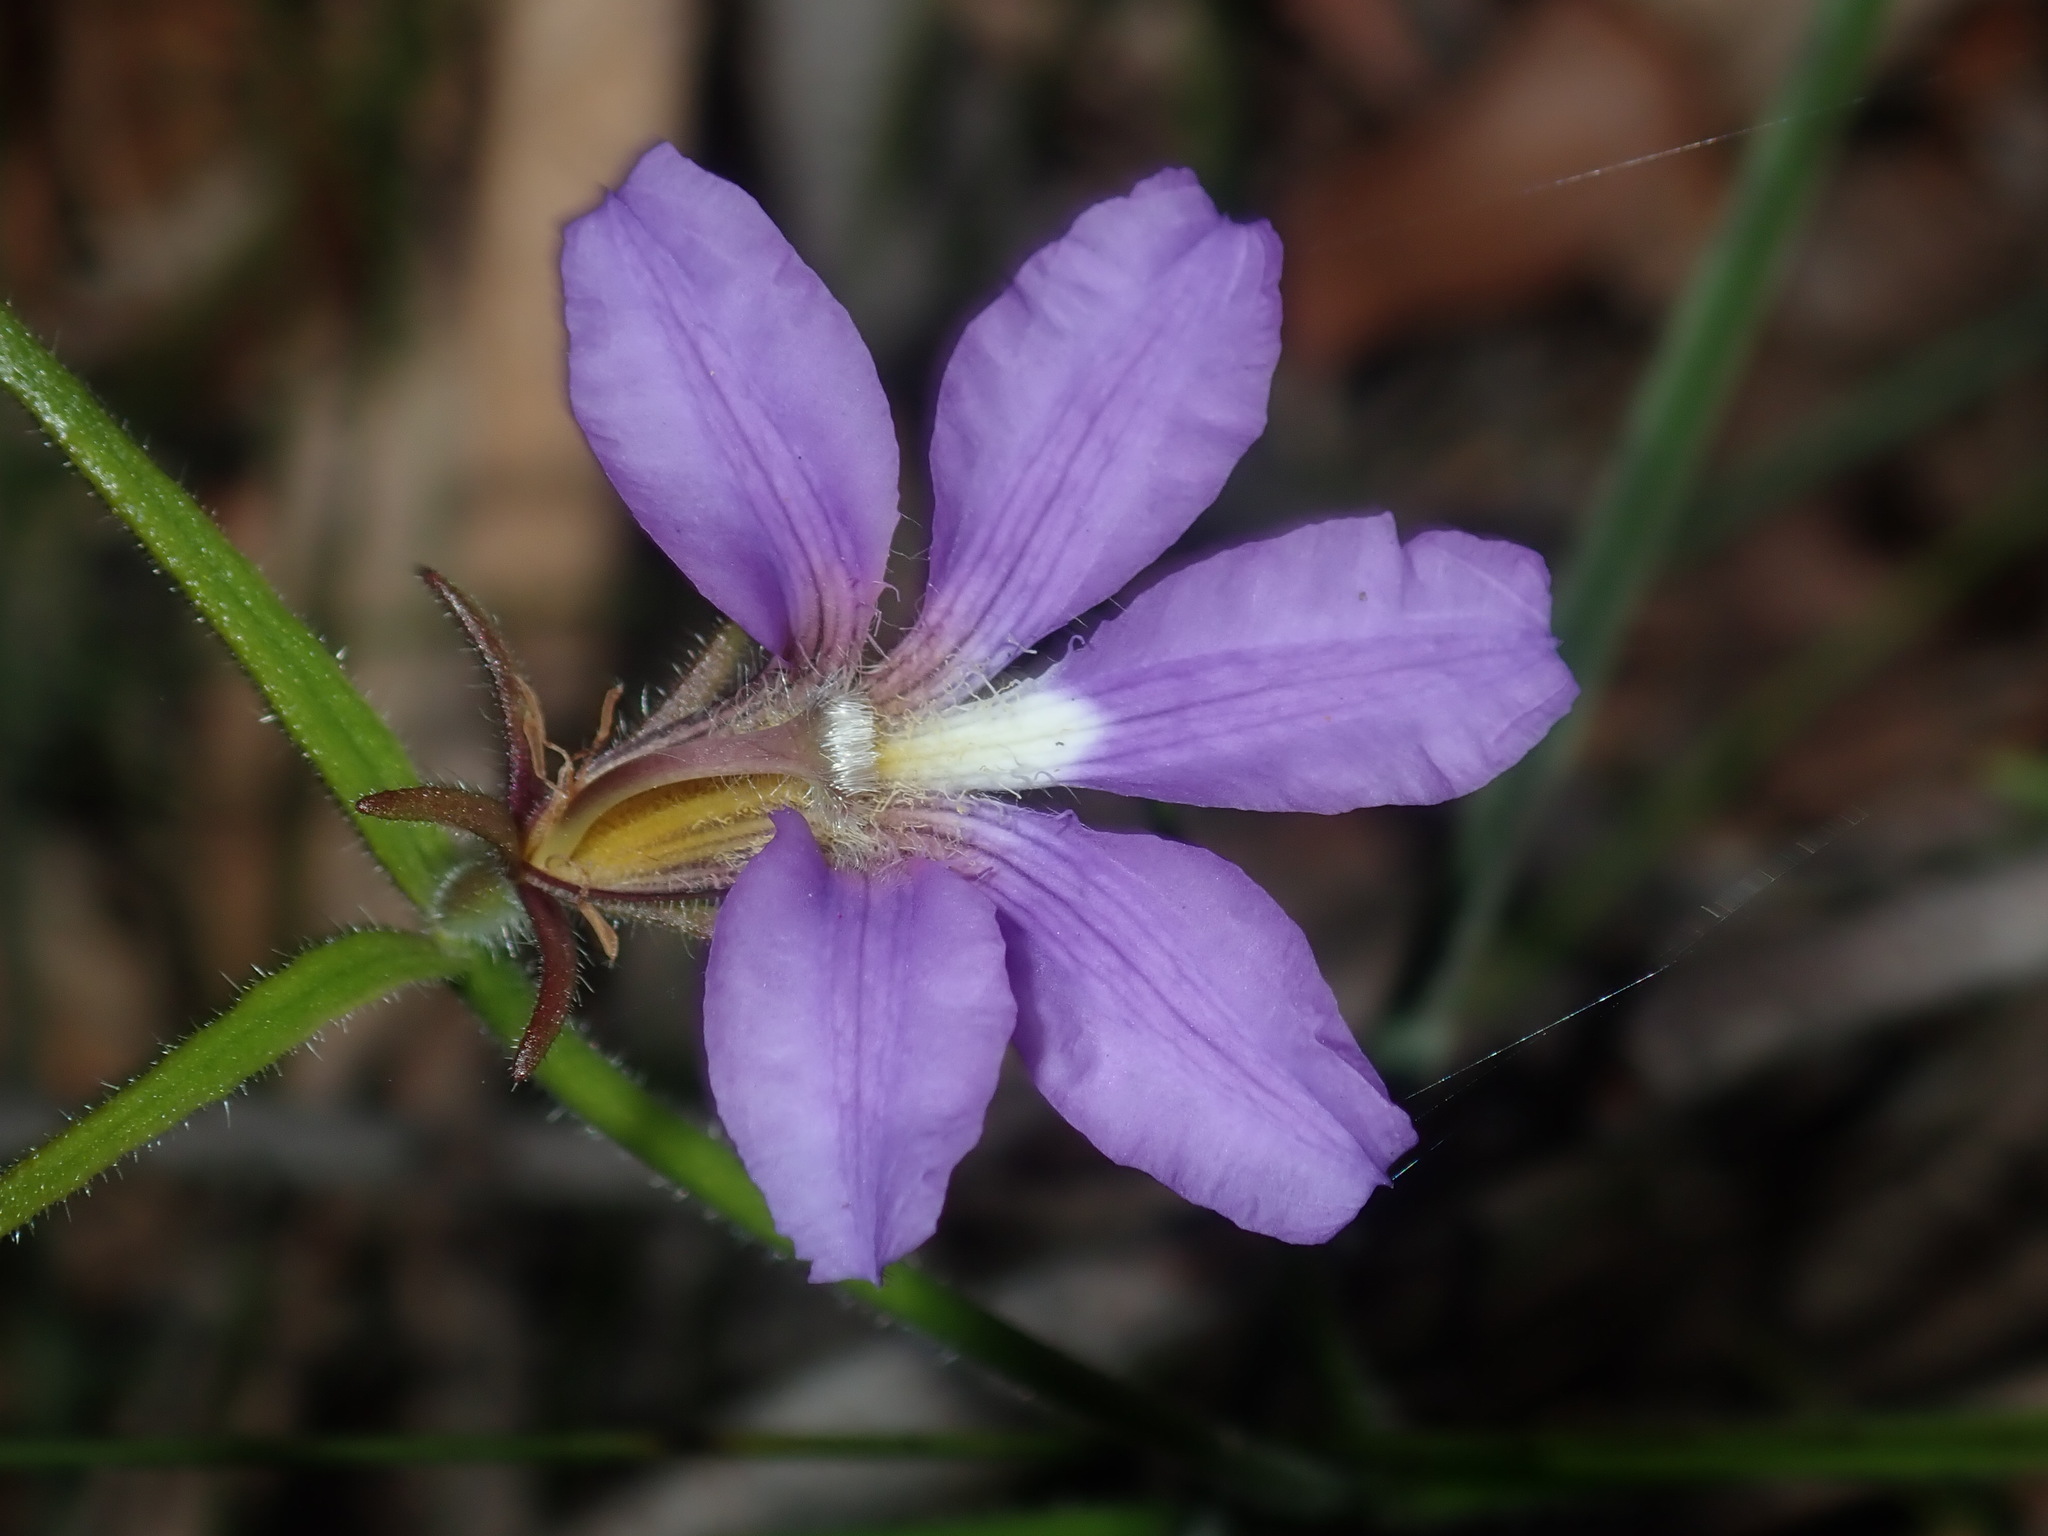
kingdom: Plantae
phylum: Tracheophyta
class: Magnoliopsida
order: Asterales
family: Goodeniaceae
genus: Scaevola
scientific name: Scaevola ramosissima
